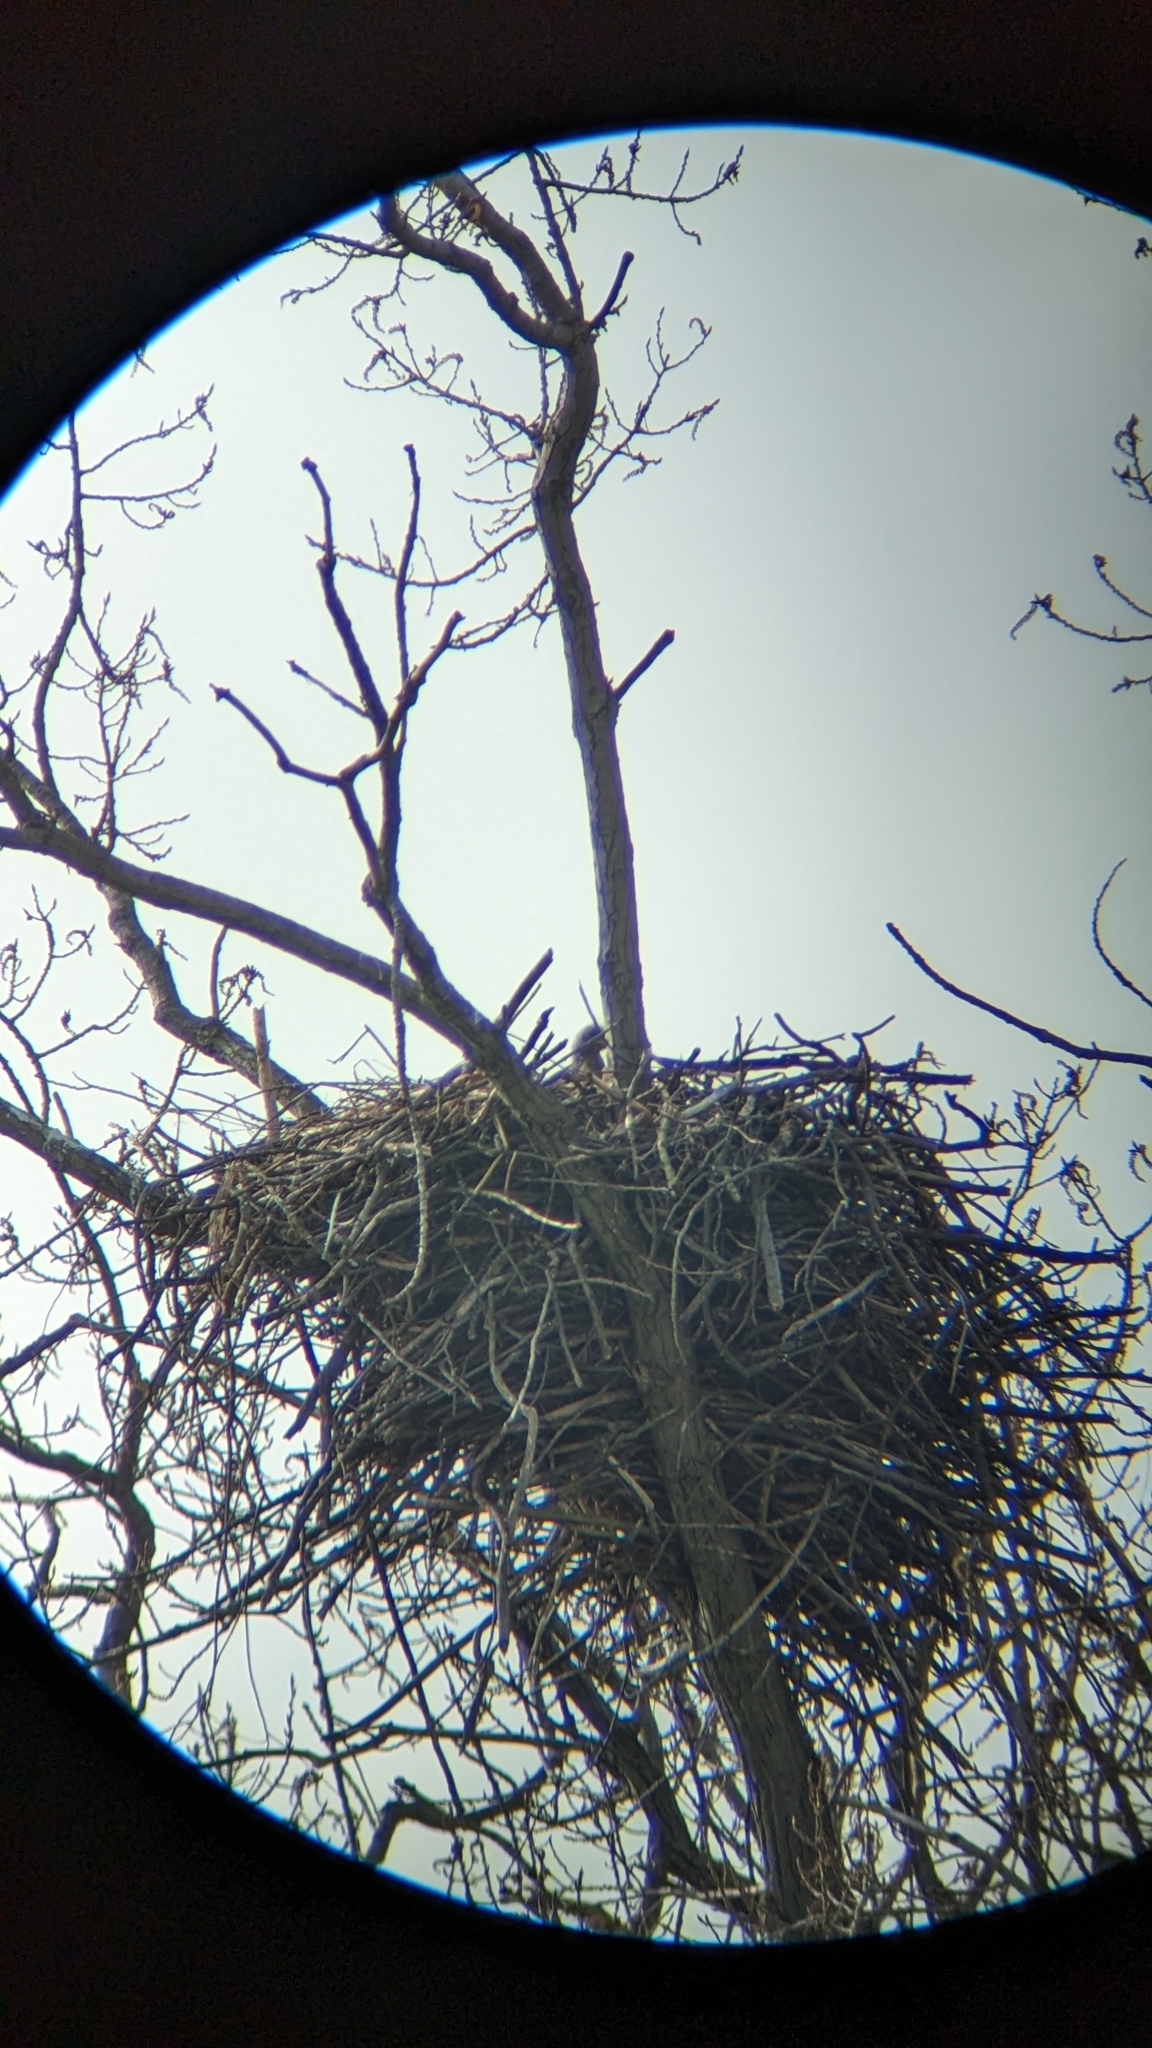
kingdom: Animalia
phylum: Chordata
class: Aves
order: Accipitriformes
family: Accipitridae
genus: Haliaeetus
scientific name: Haliaeetus leucocephalus
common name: Bald eagle
